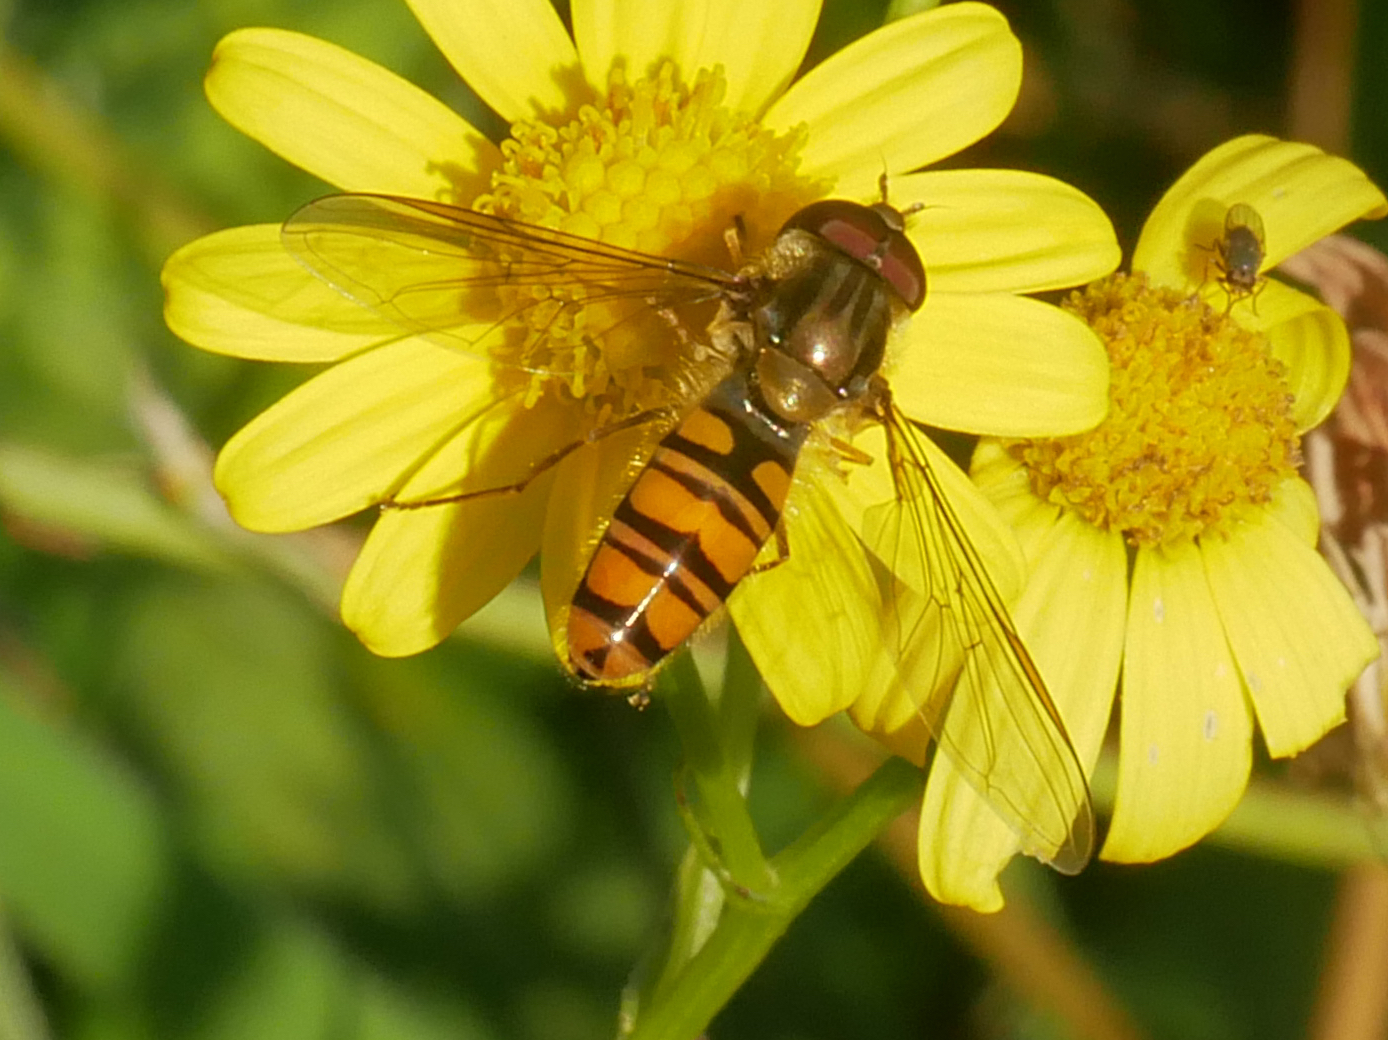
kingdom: Animalia
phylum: Arthropoda
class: Insecta
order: Diptera
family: Syrphidae
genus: Episyrphus
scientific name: Episyrphus balteatus
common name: Marmalade hoverfly
